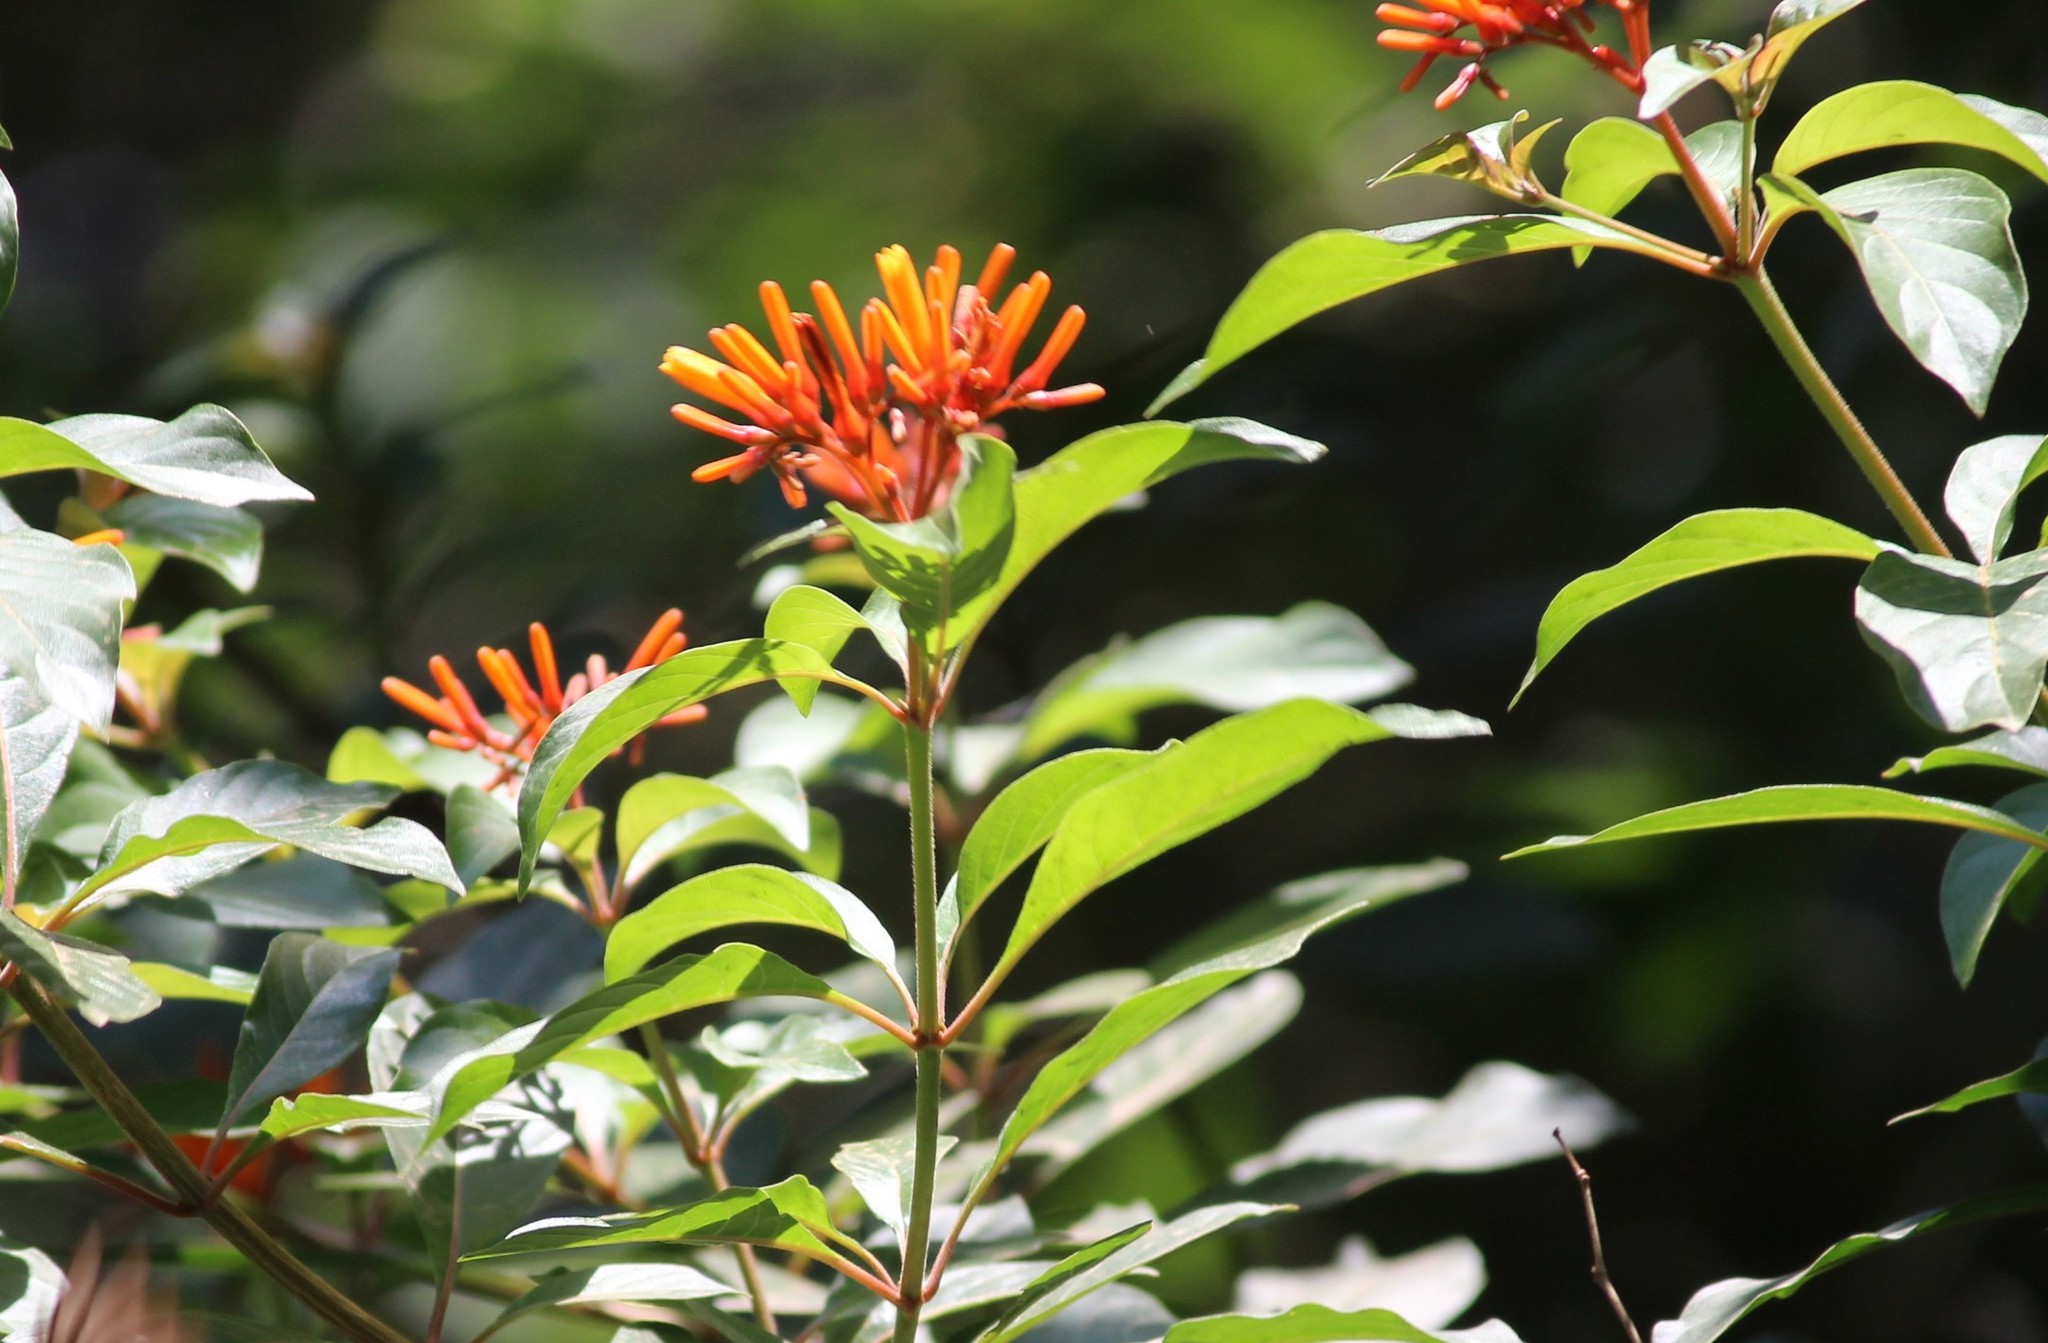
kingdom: Plantae
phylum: Tracheophyta
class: Magnoliopsida
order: Gentianales
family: Rubiaceae
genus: Hamelia
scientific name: Hamelia patens
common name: Redhead
